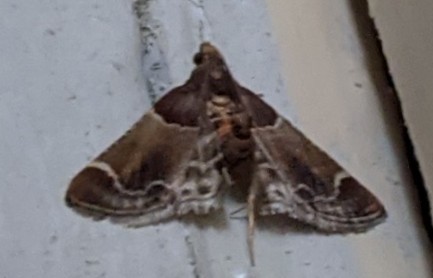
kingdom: Animalia
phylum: Arthropoda
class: Insecta
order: Lepidoptera
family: Pyralidae
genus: Pyralis
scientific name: Pyralis farinalis
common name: Meal moth
